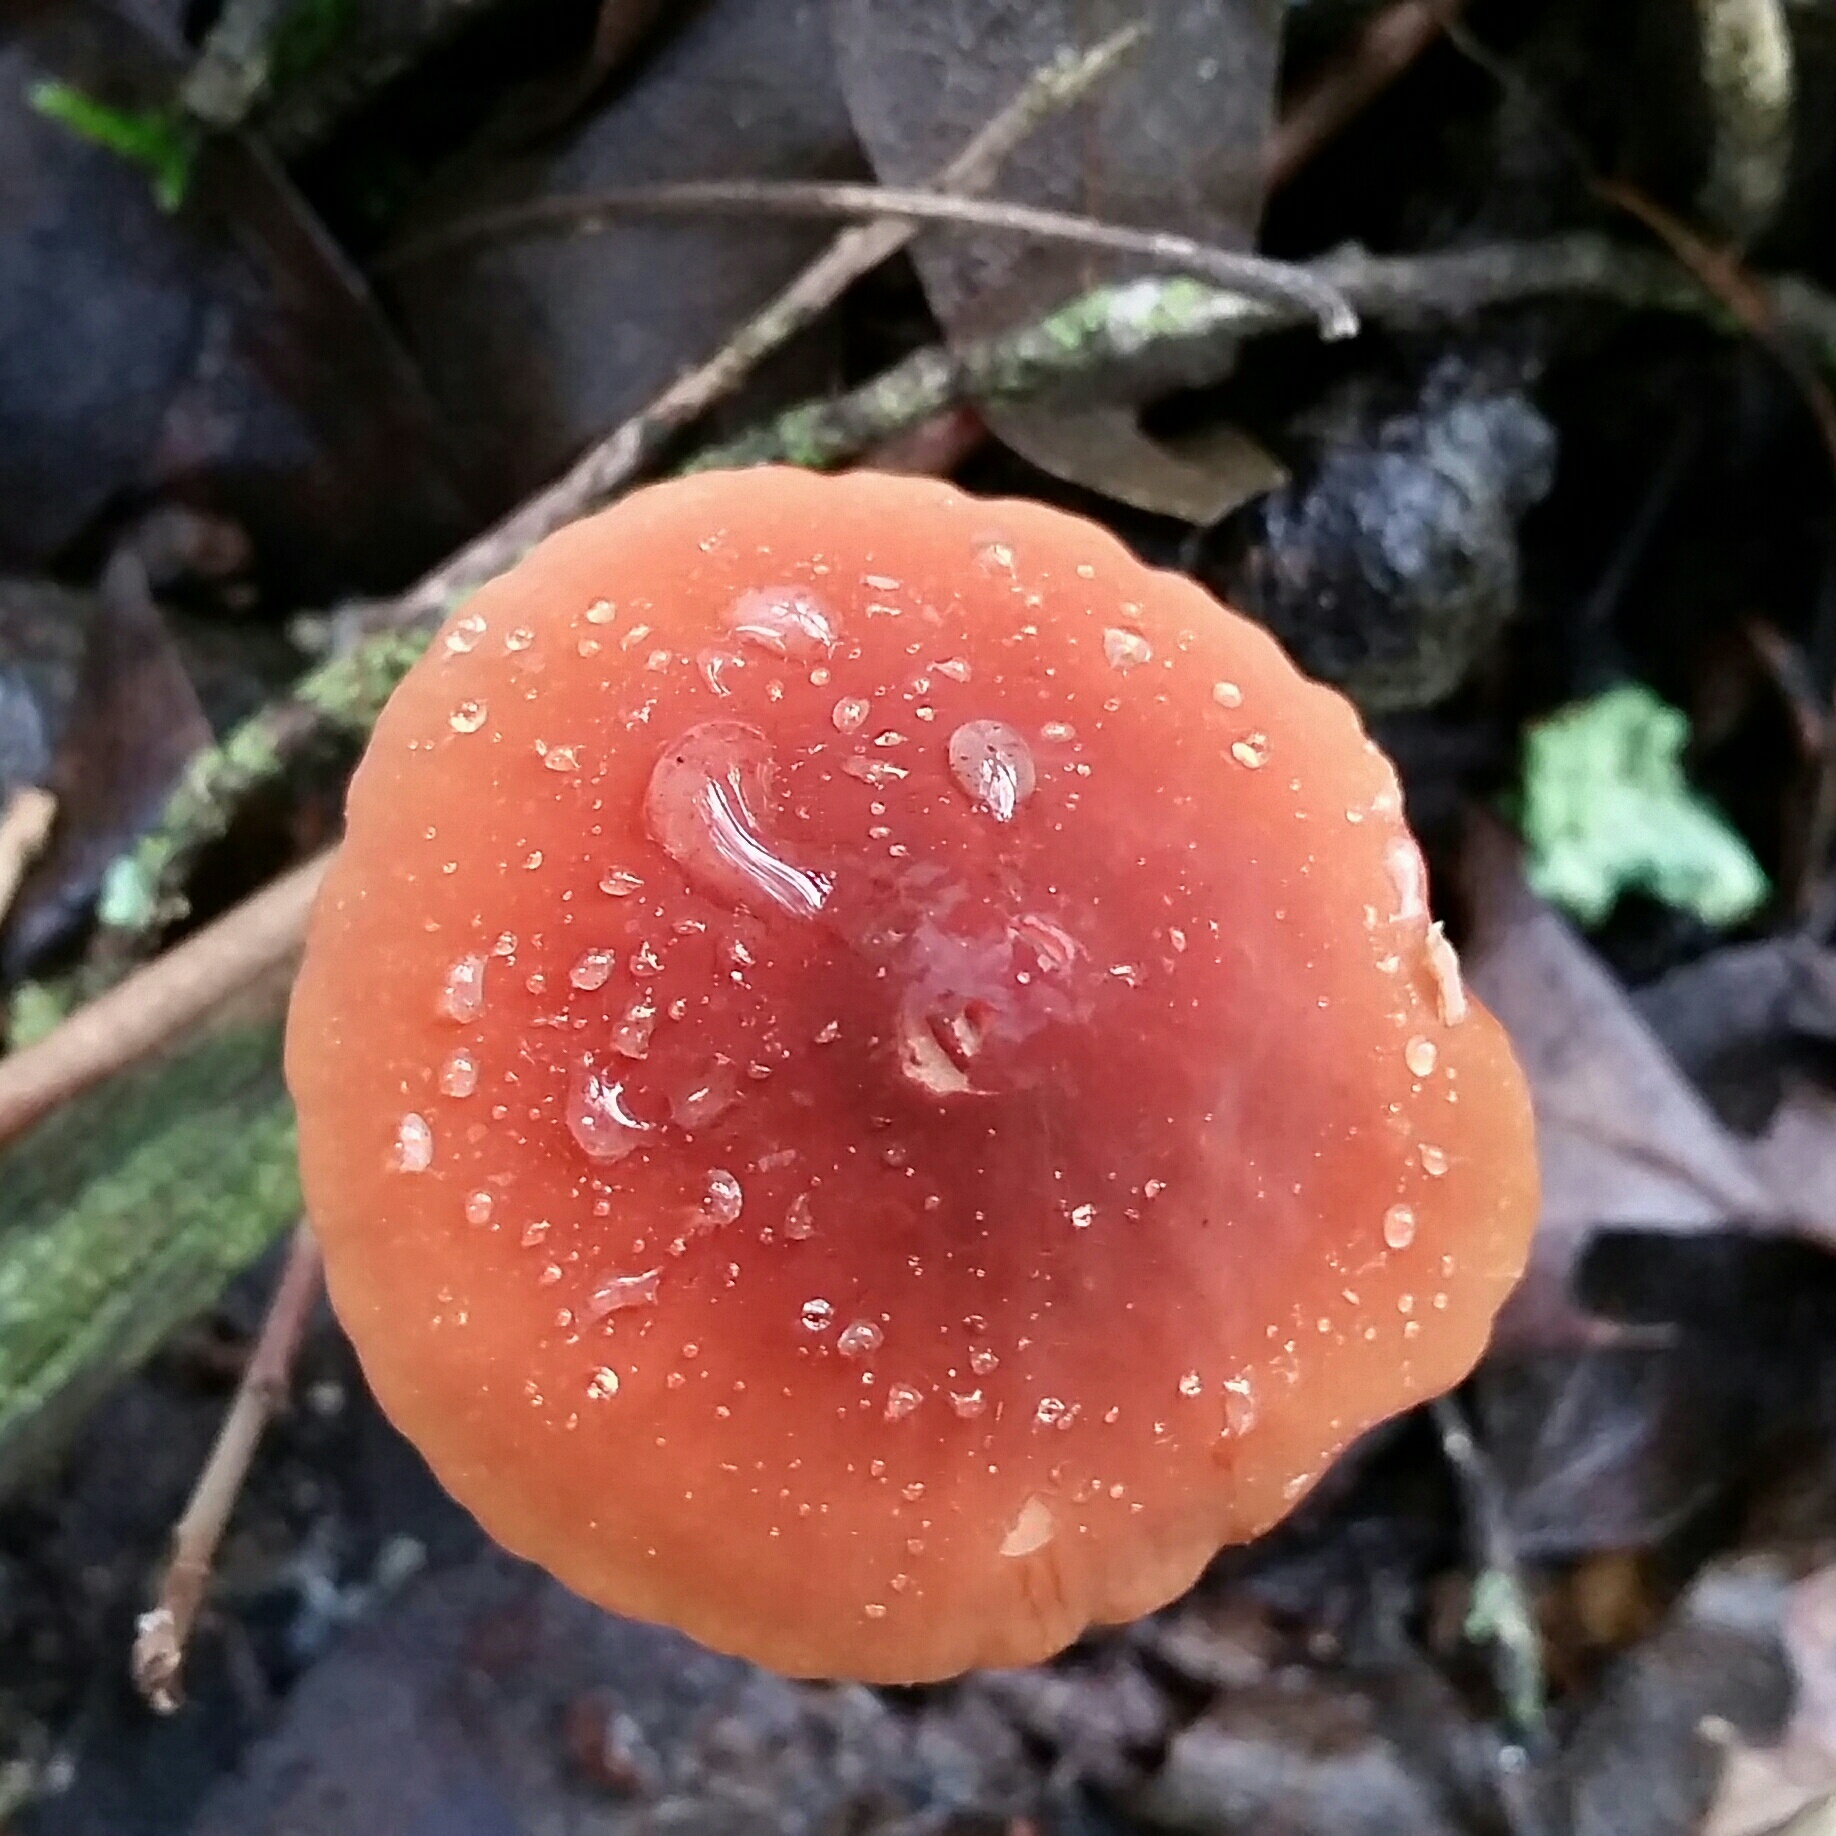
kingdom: Fungi
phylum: Basidiomycota
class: Agaricomycetes
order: Agaricales
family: Marasmiaceae
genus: Marasmius
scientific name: Marasmius plicatulus
